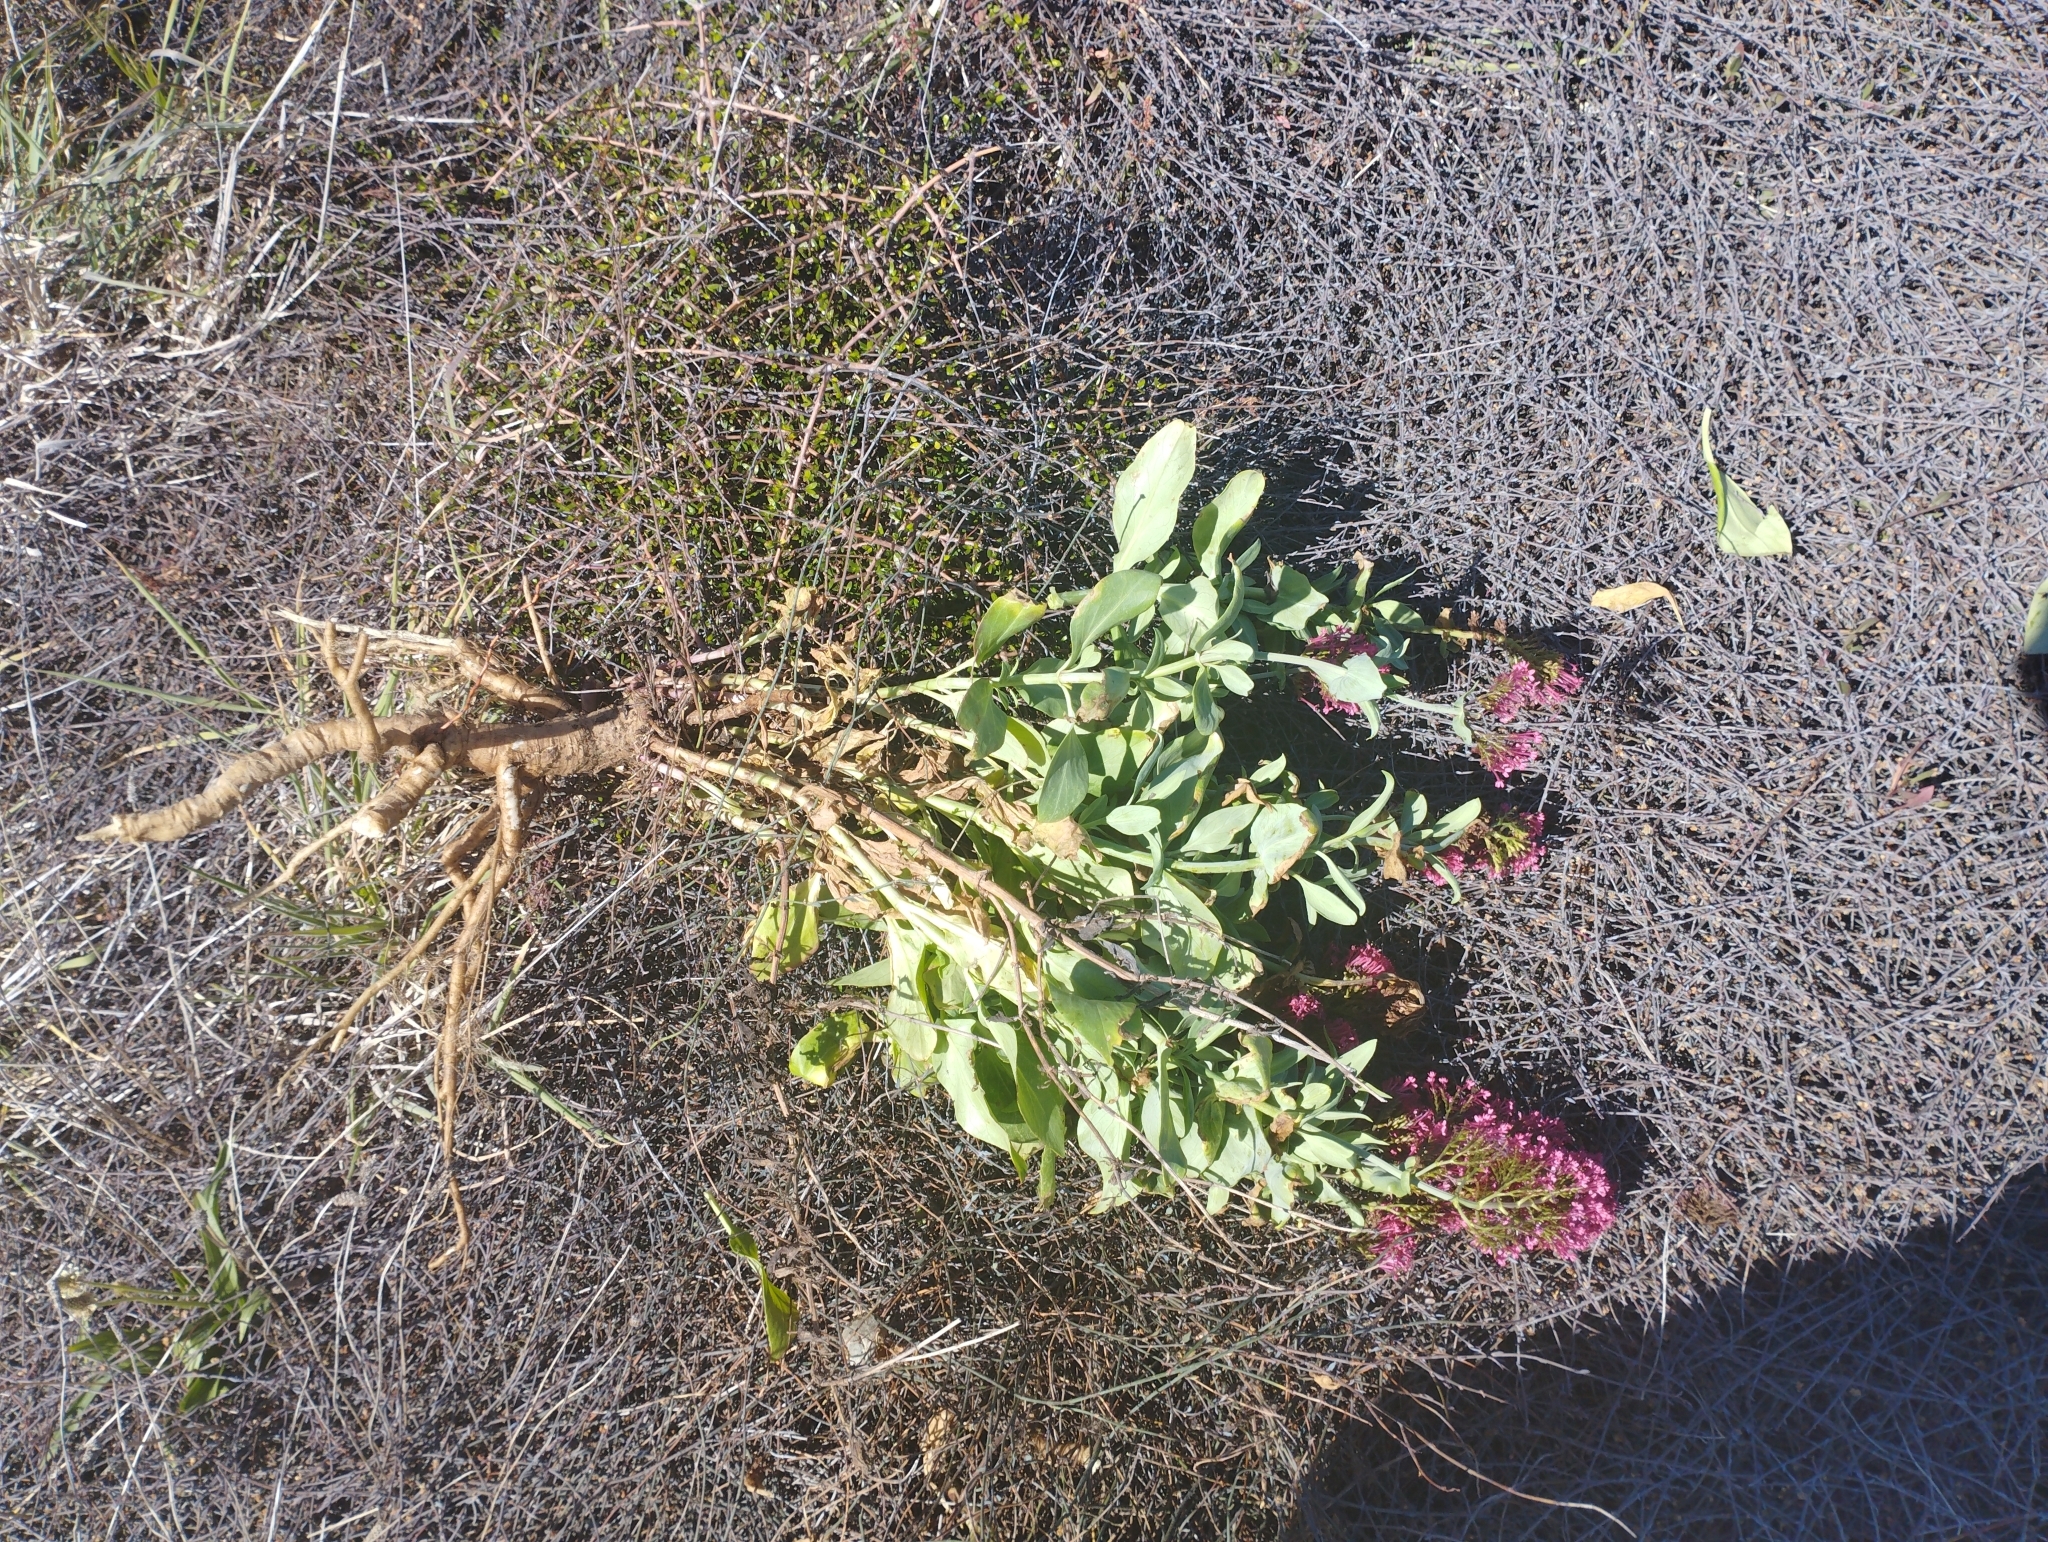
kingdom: Plantae
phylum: Tracheophyta
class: Magnoliopsida
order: Dipsacales
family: Caprifoliaceae
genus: Centranthus
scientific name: Centranthus ruber
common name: Red valerian
